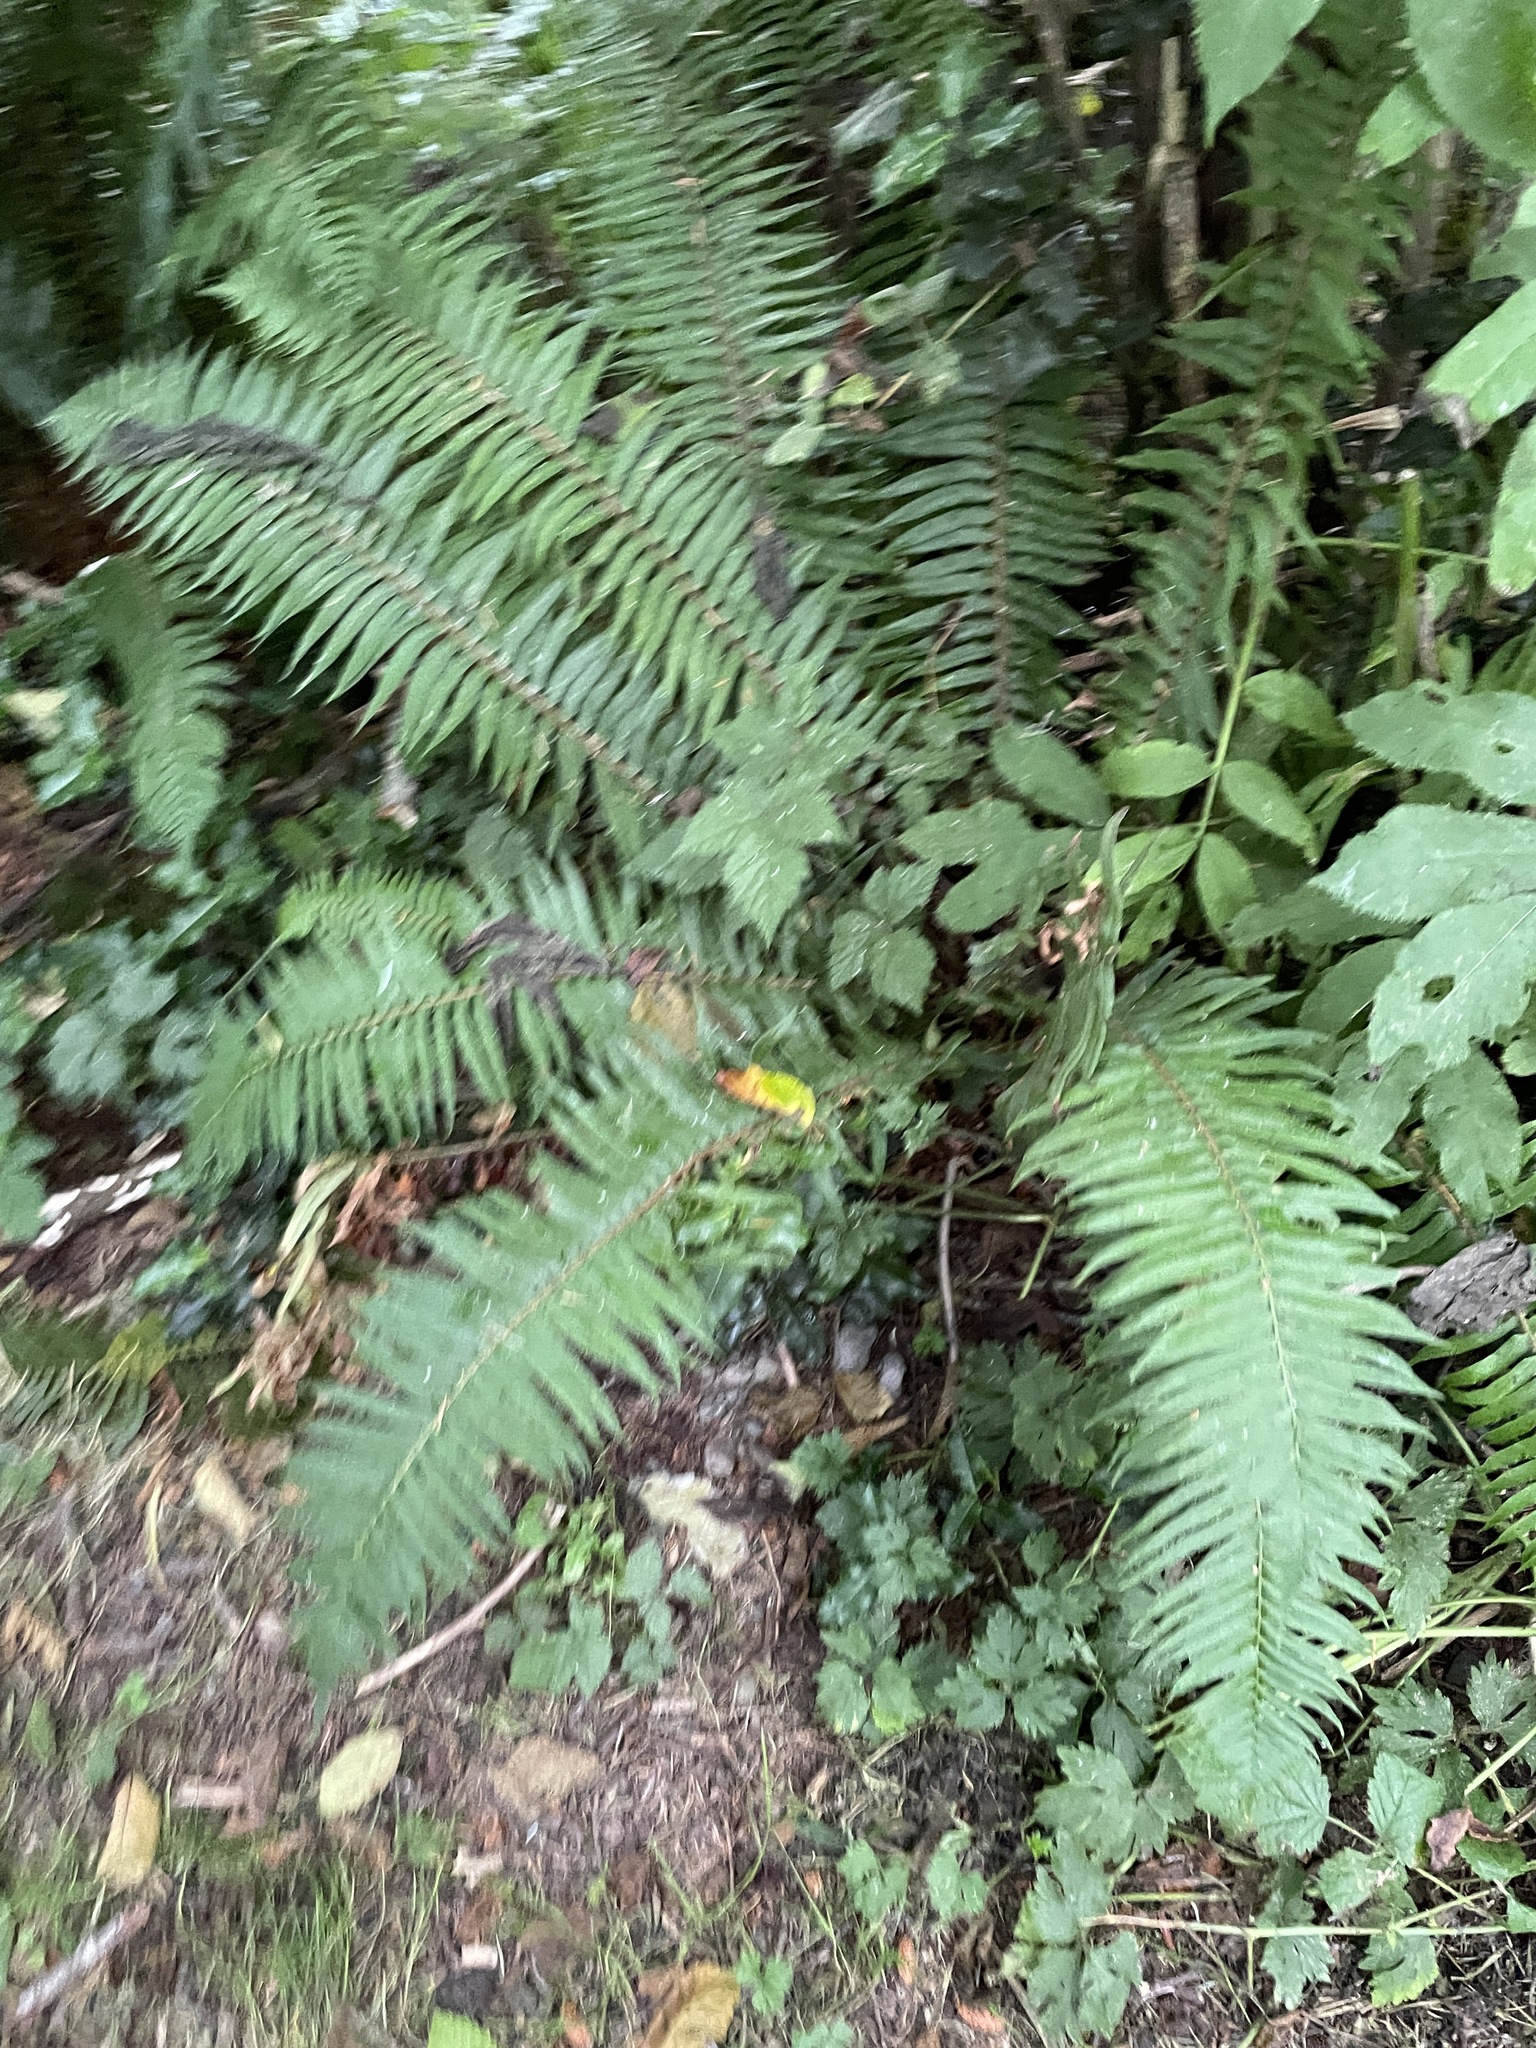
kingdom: Plantae
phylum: Tracheophyta
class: Polypodiopsida
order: Polypodiales
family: Dryopteridaceae
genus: Polystichum
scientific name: Polystichum munitum
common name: Western sword-fern
